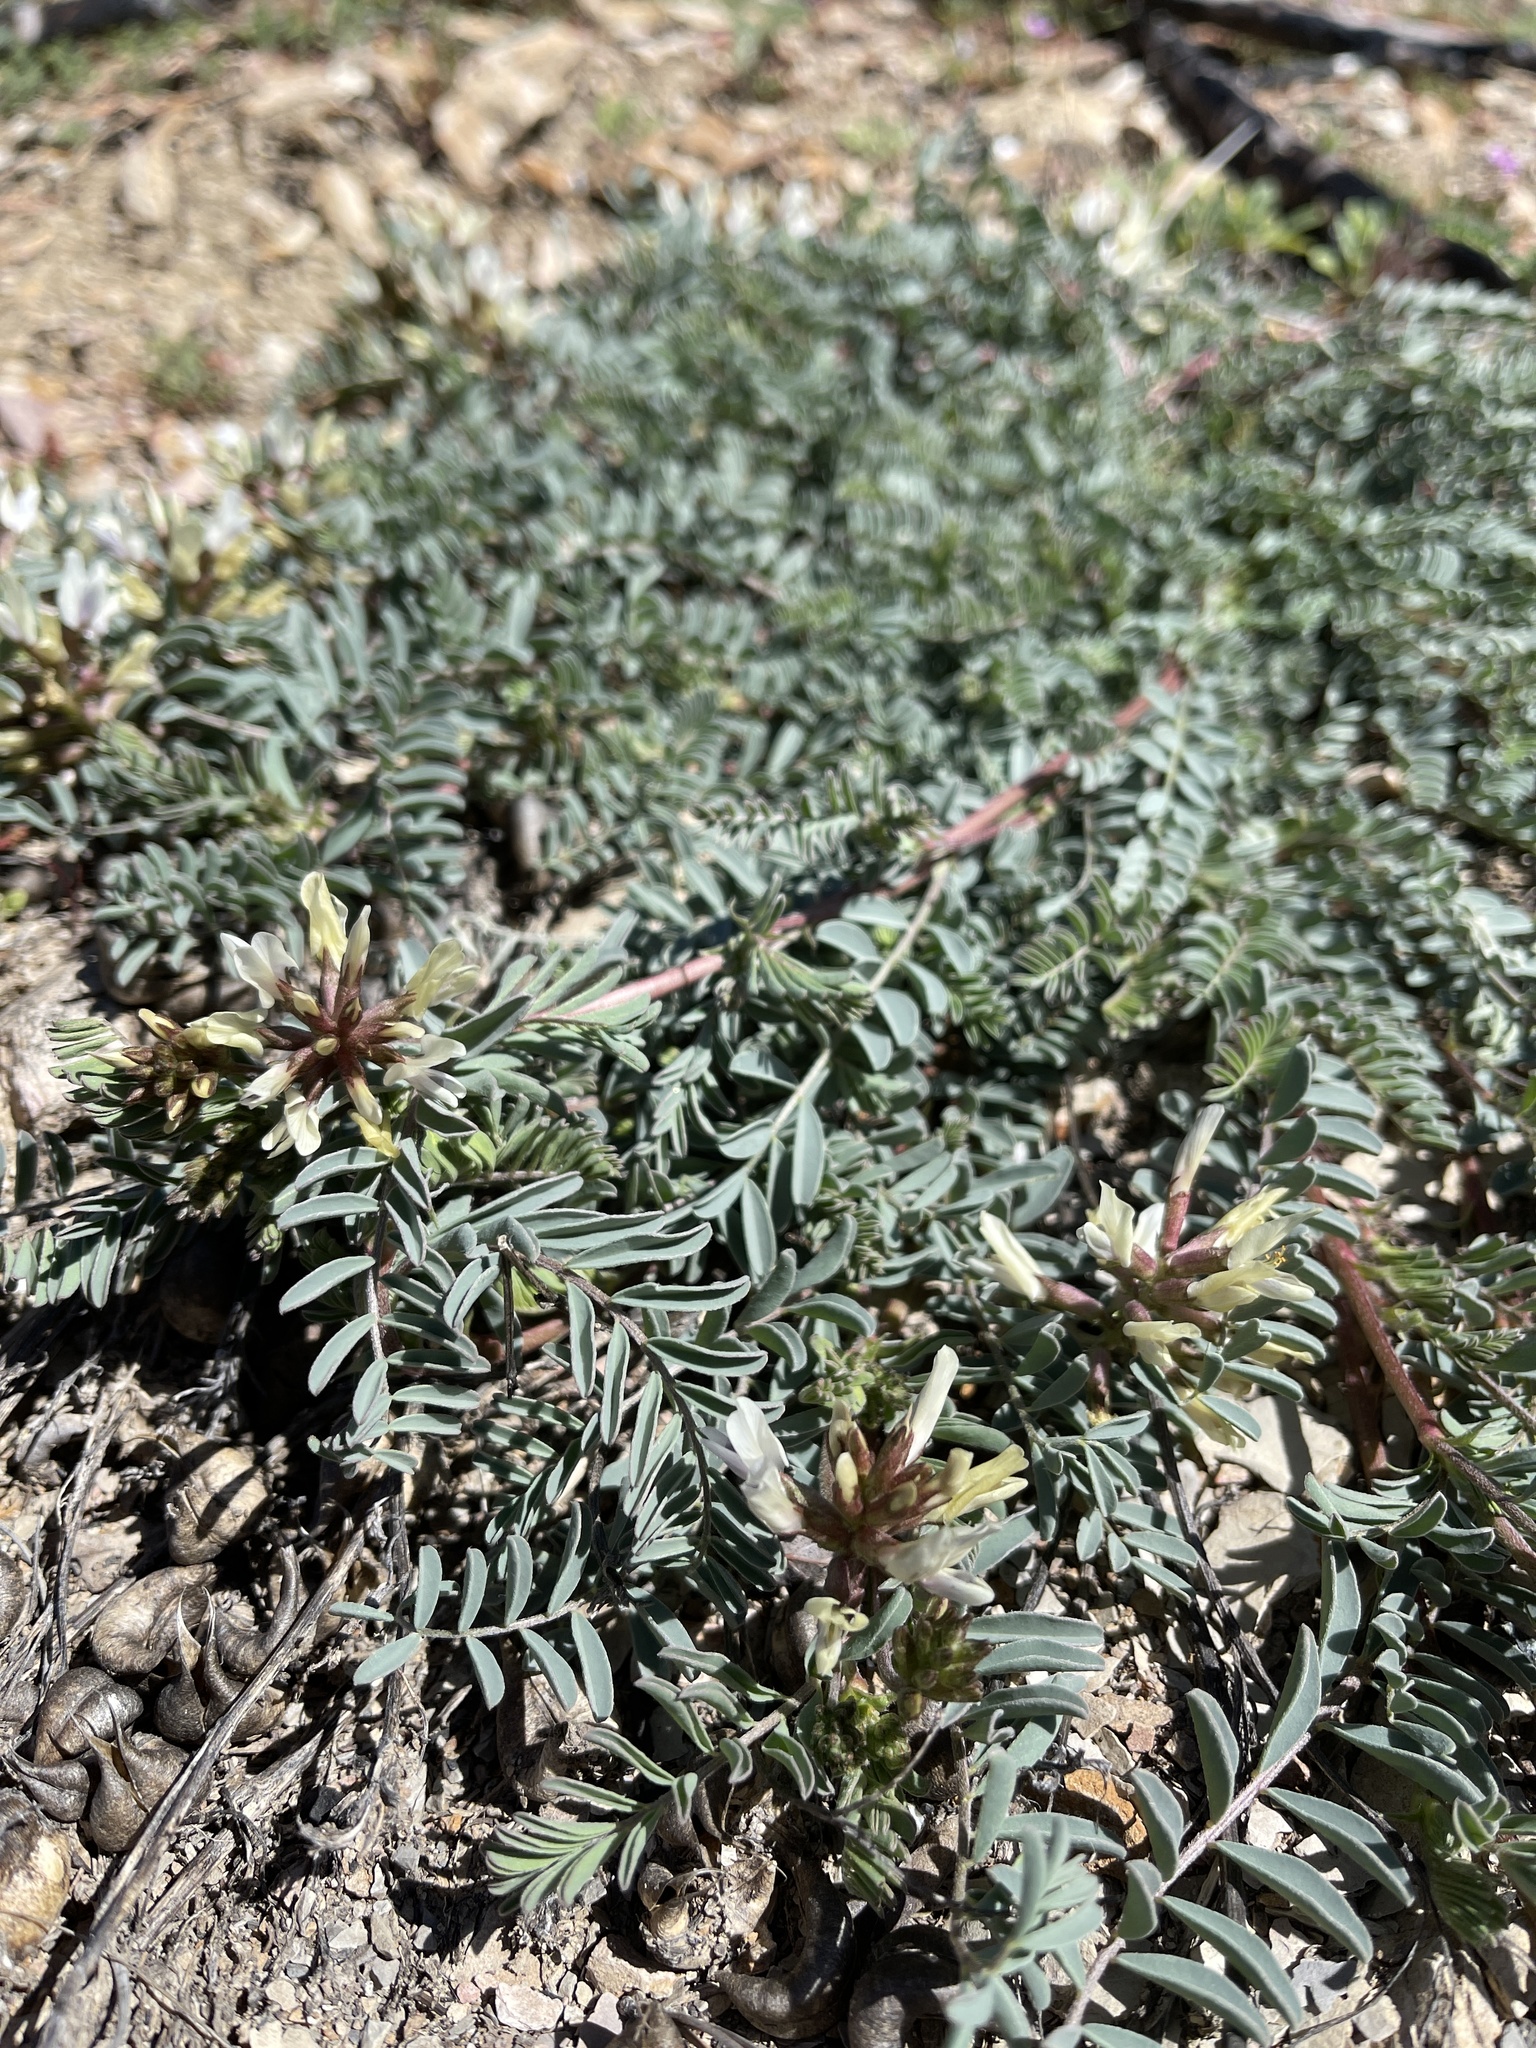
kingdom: Plantae
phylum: Tracheophyta
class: Magnoliopsida
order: Fabales
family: Fabaceae
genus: Astragalus
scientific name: Astragalus lentiginosus
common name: Freckled milkvetch
